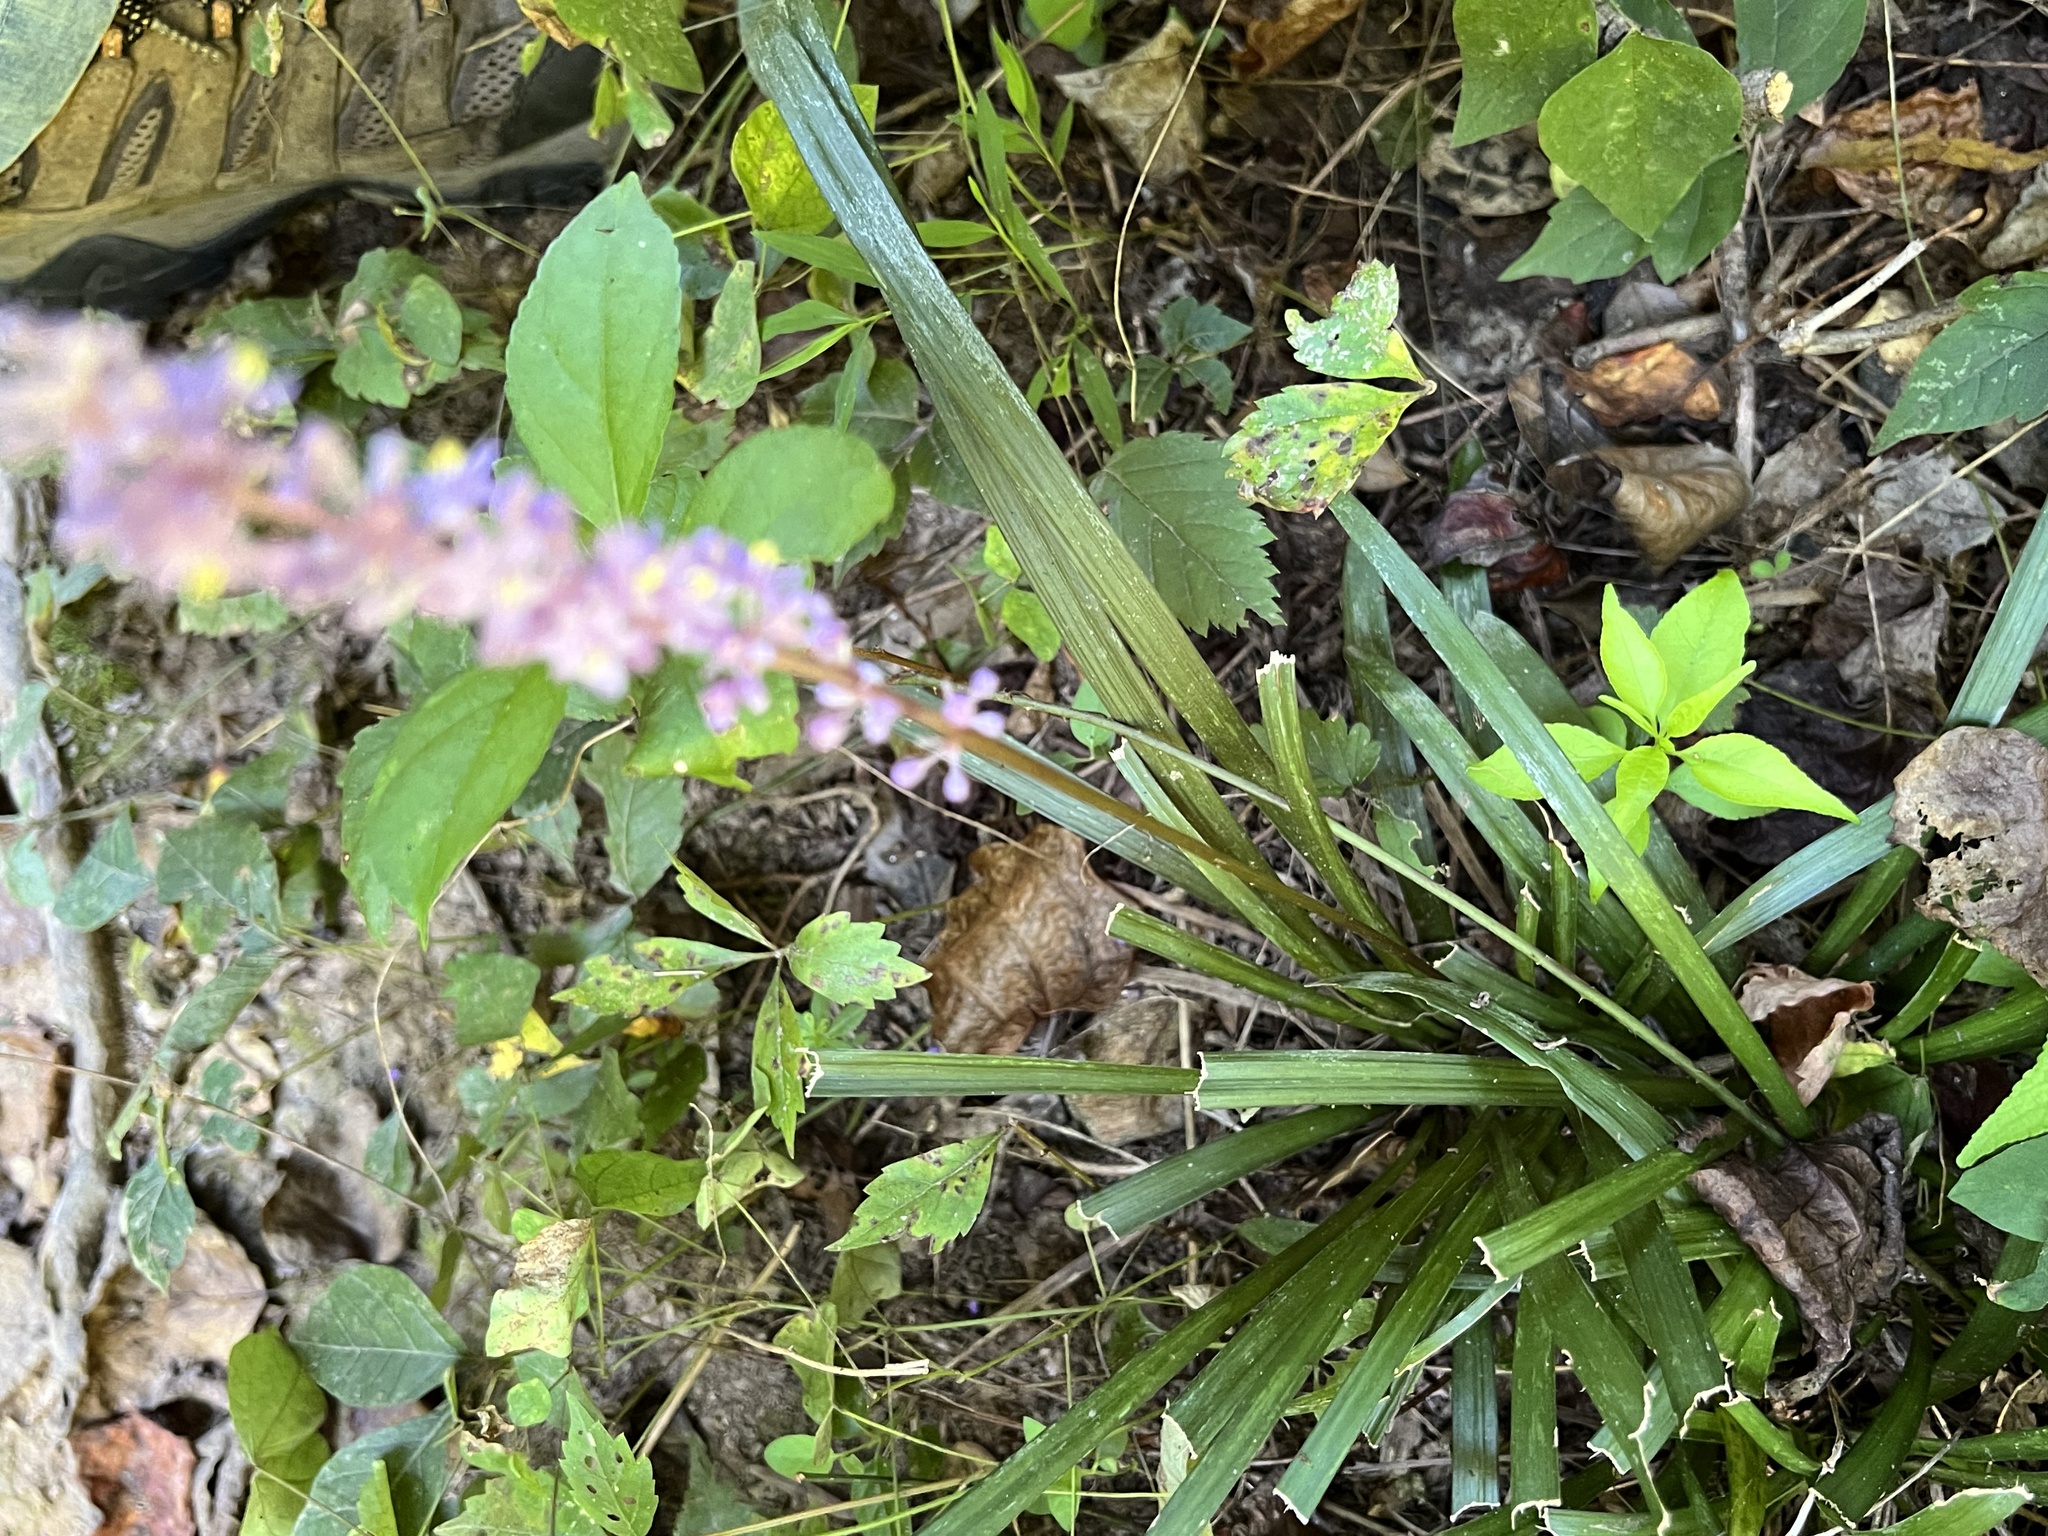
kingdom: Plantae
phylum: Tracheophyta
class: Liliopsida
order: Asparagales
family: Asparagaceae
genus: Liriope
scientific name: Liriope muscari
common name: Big blue lilyturf
